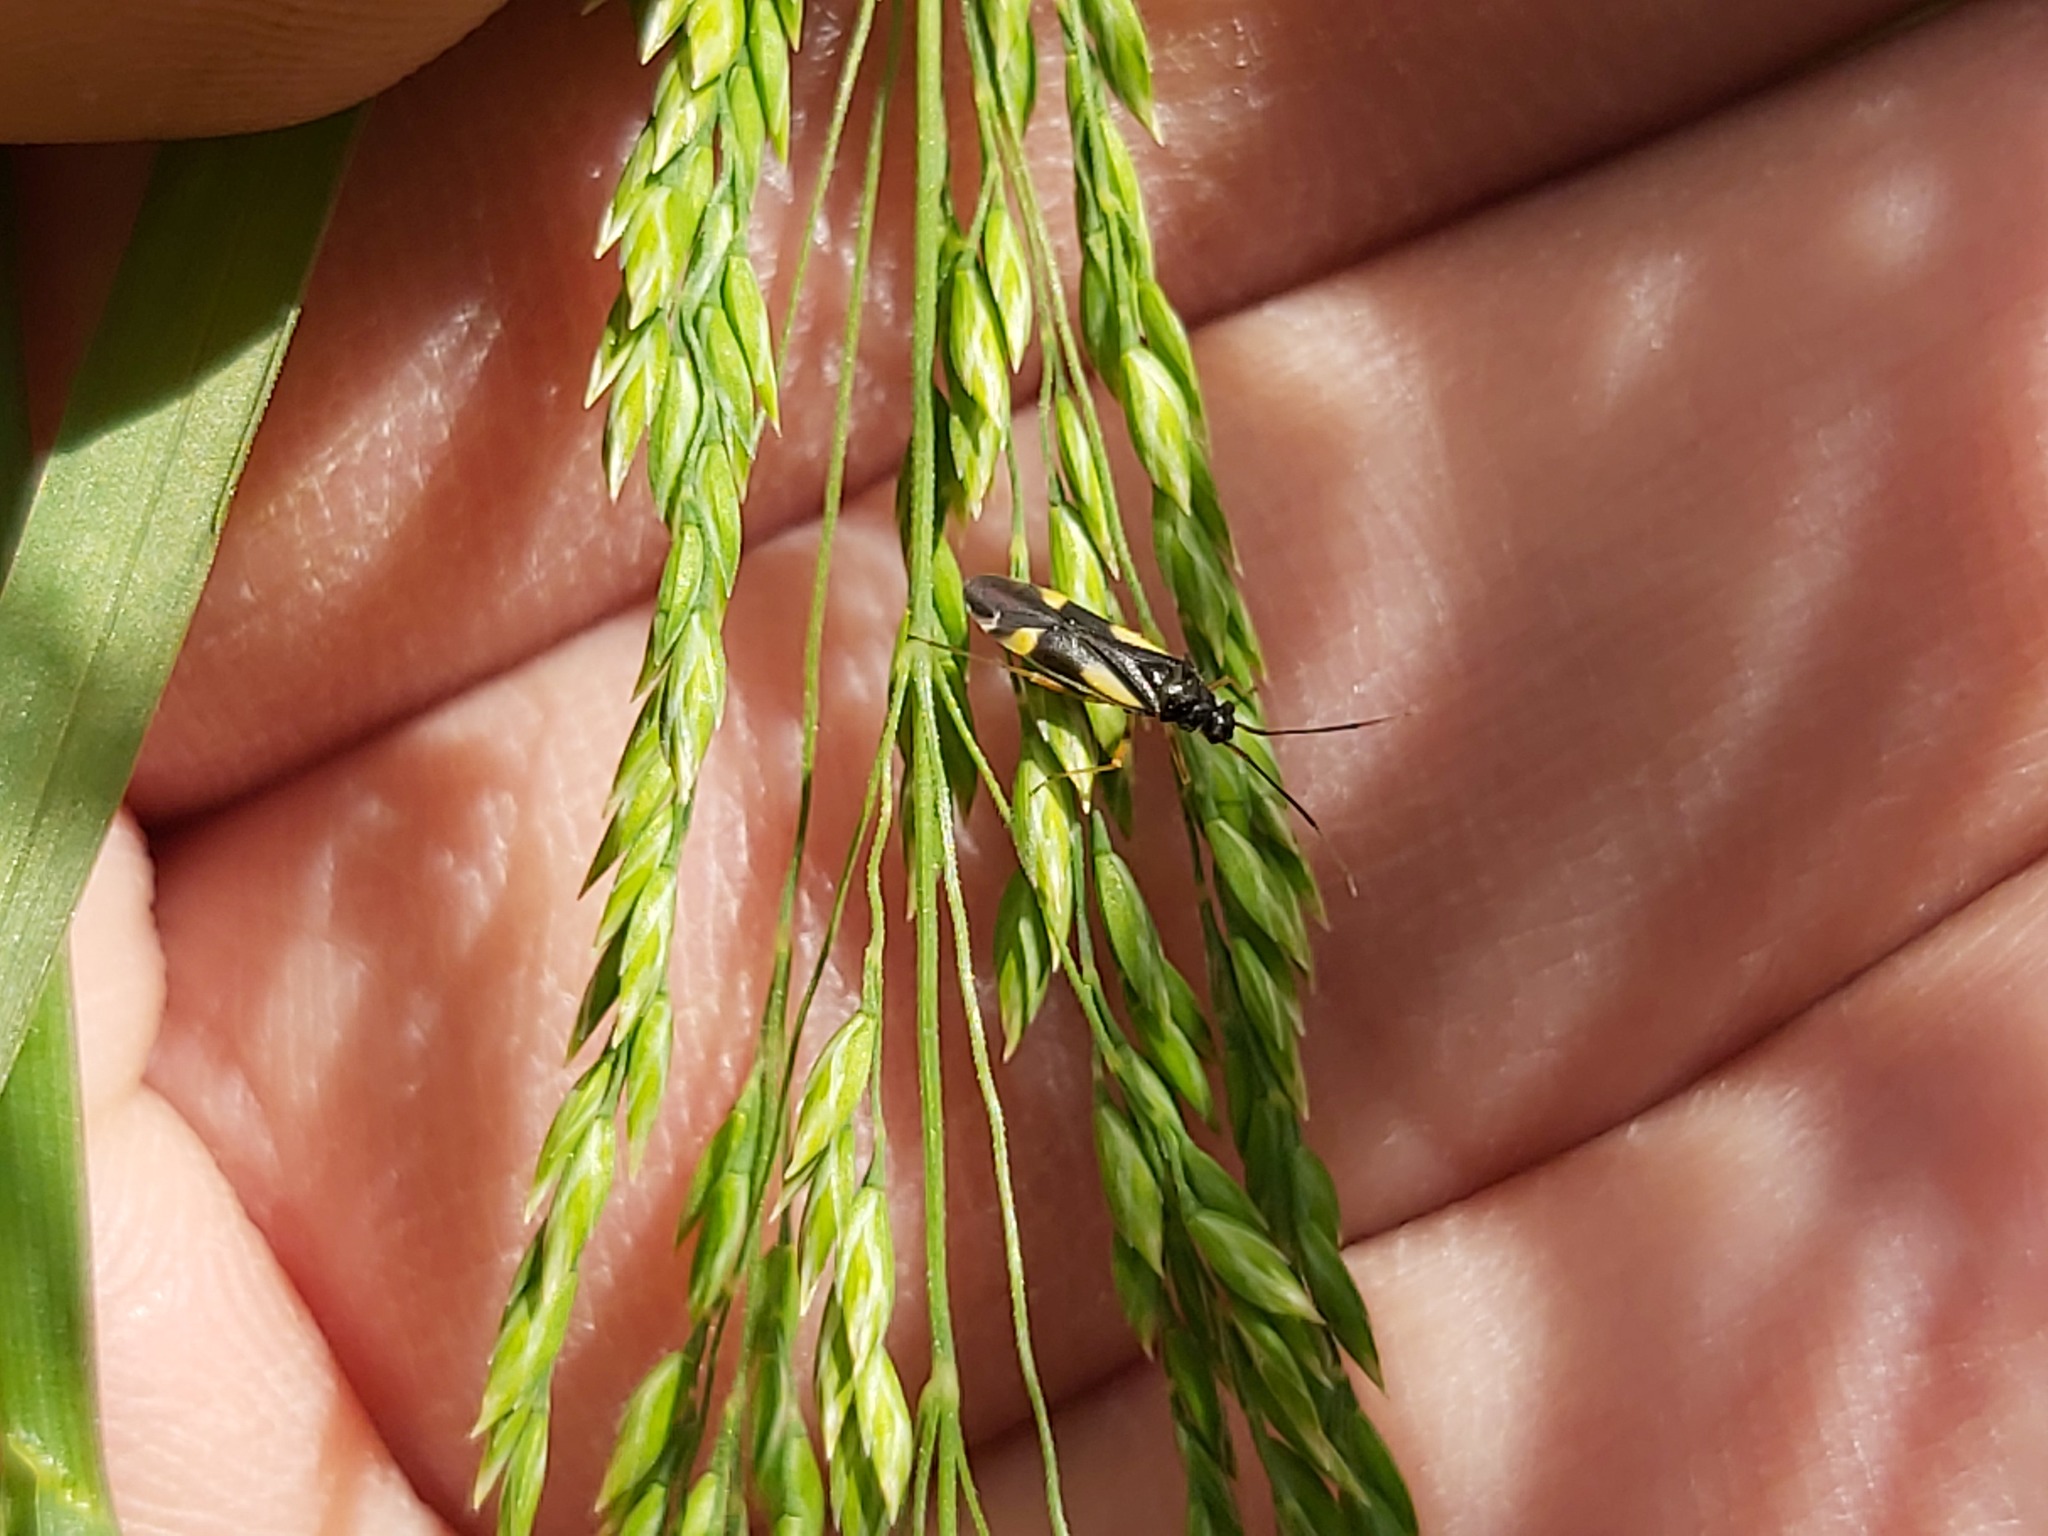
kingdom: Animalia
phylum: Arthropoda
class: Insecta
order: Hemiptera
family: Miridae
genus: Dryophilocoris
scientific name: Dryophilocoris flavoquadrimaculatus
